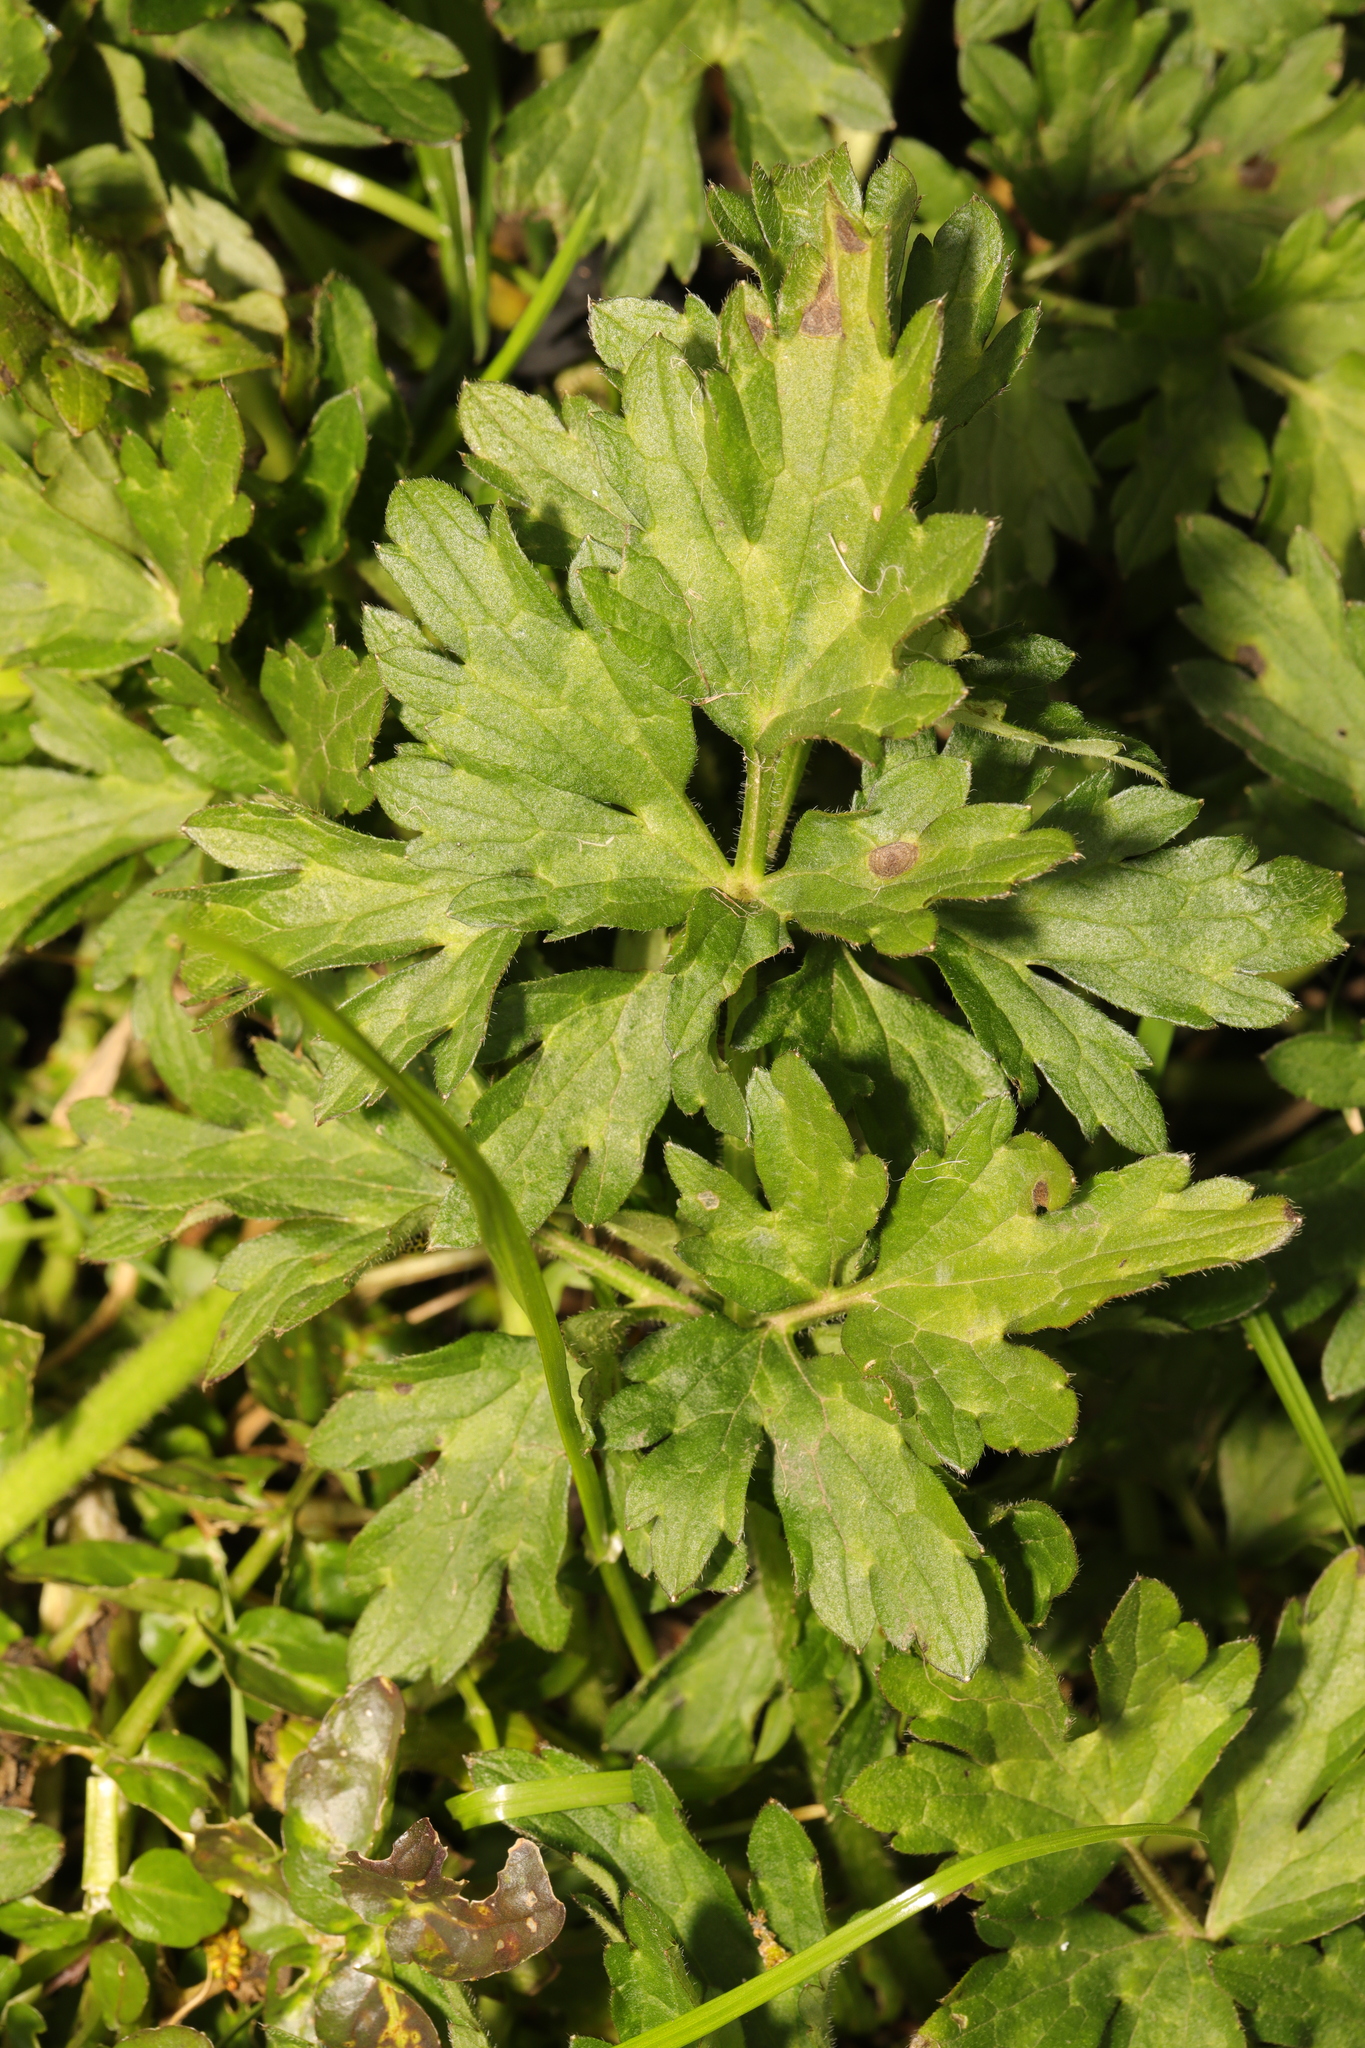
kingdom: Plantae
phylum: Tracheophyta
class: Magnoliopsida
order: Ranunculales
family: Ranunculaceae
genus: Ranunculus
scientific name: Ranunculus repens
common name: Creeping buttercup
